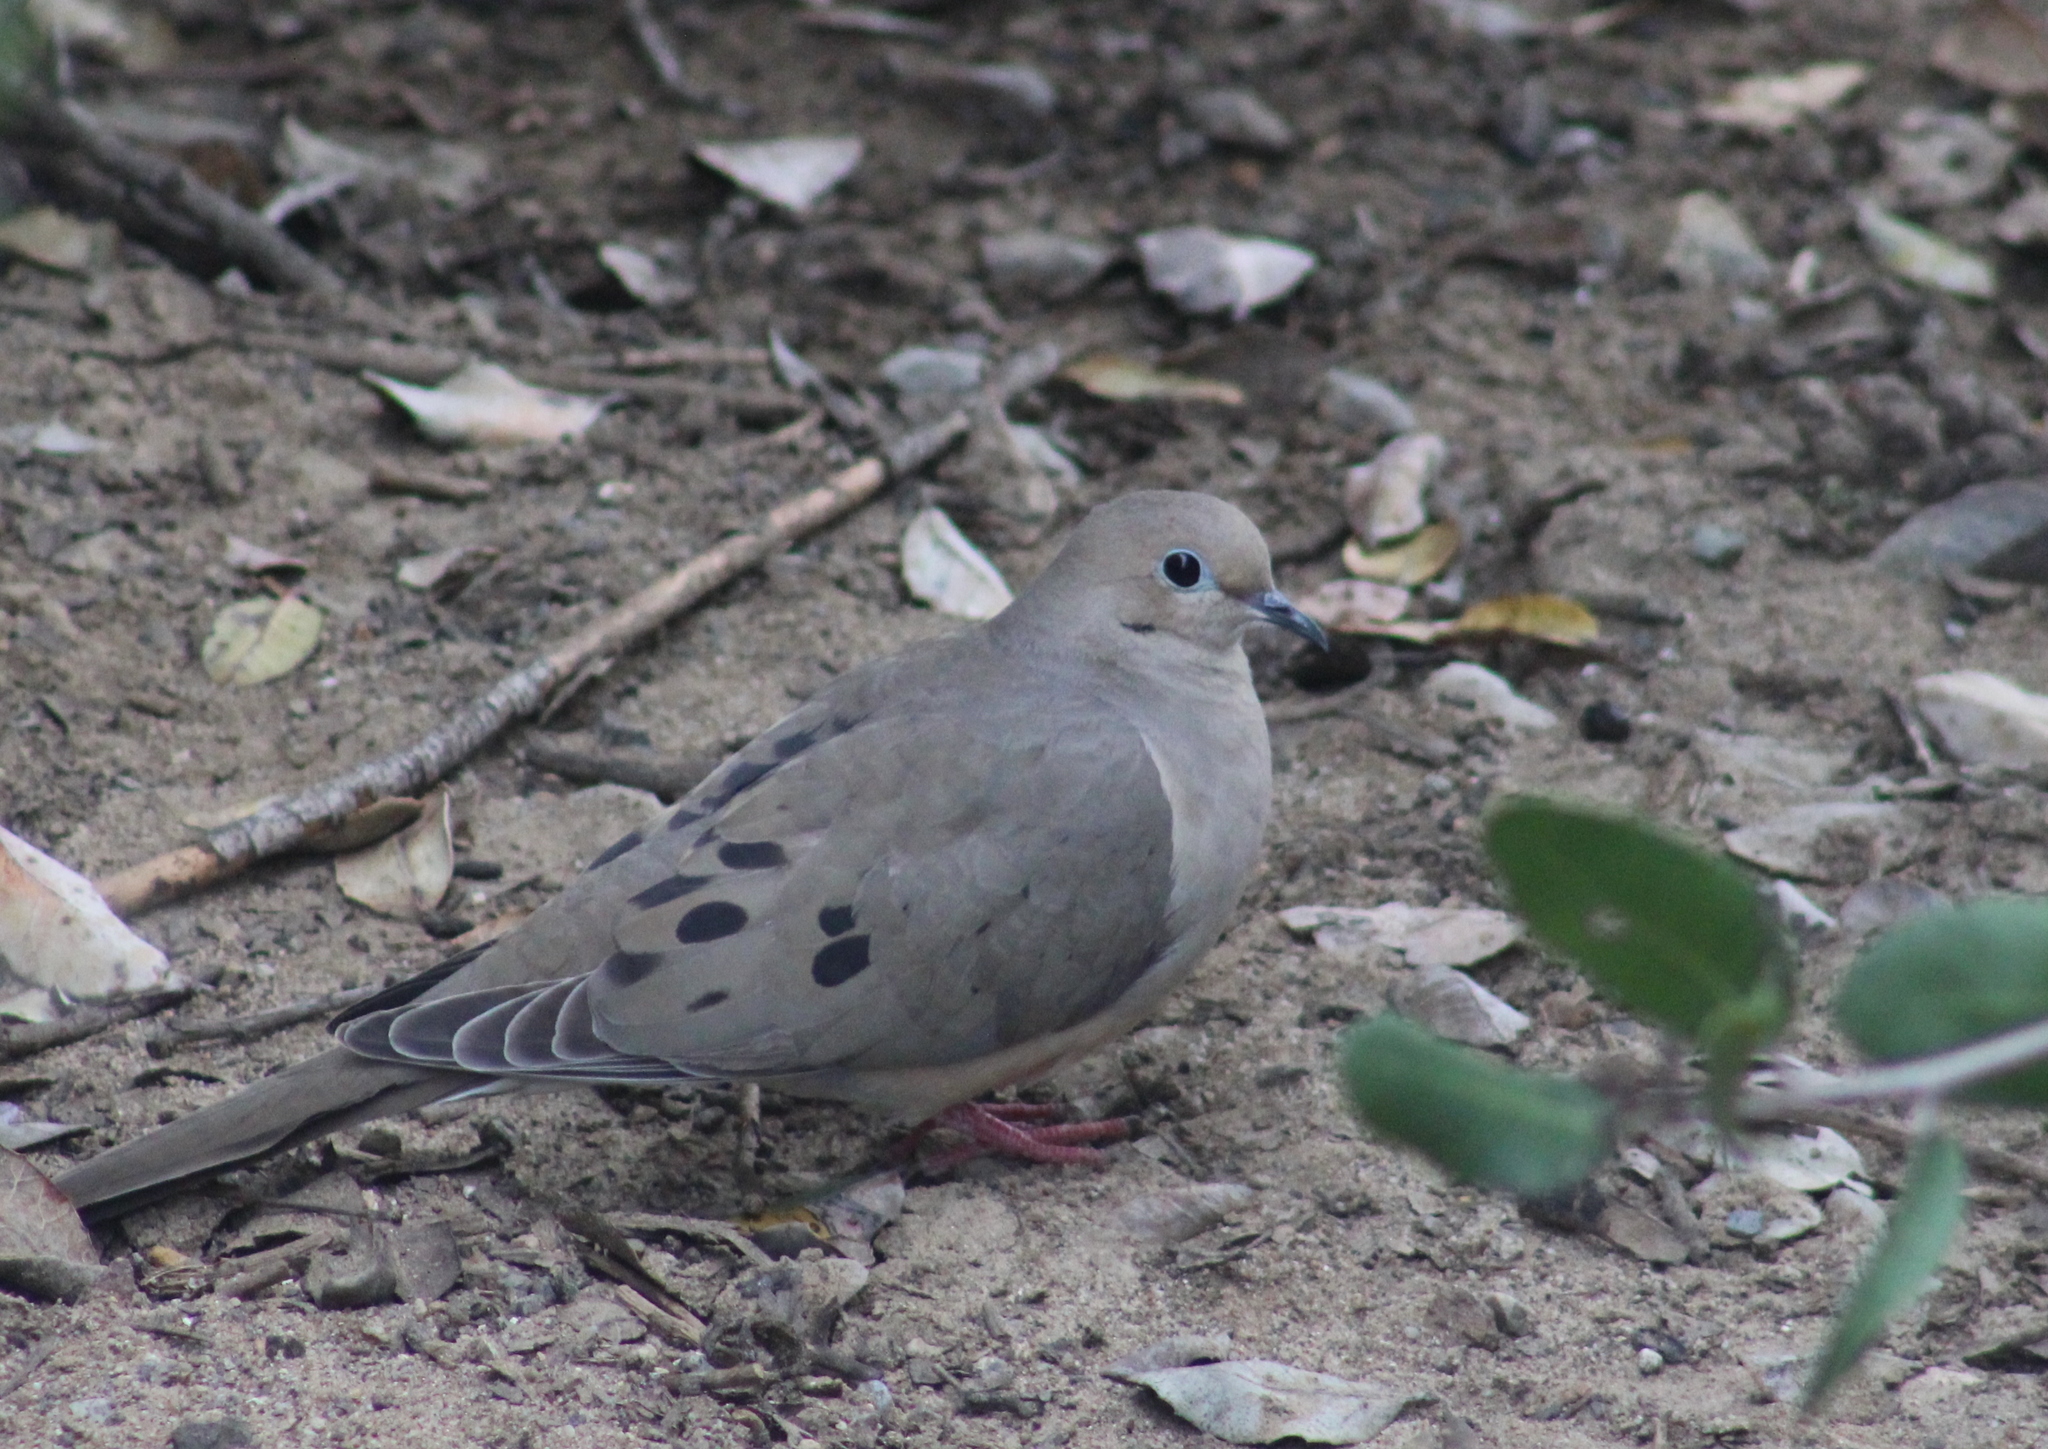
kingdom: Animalia
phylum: Chordata
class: Aves
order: Columbiformes
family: Columbidae
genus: Zenaida
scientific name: Zenaida macroura
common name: Mourning dove
